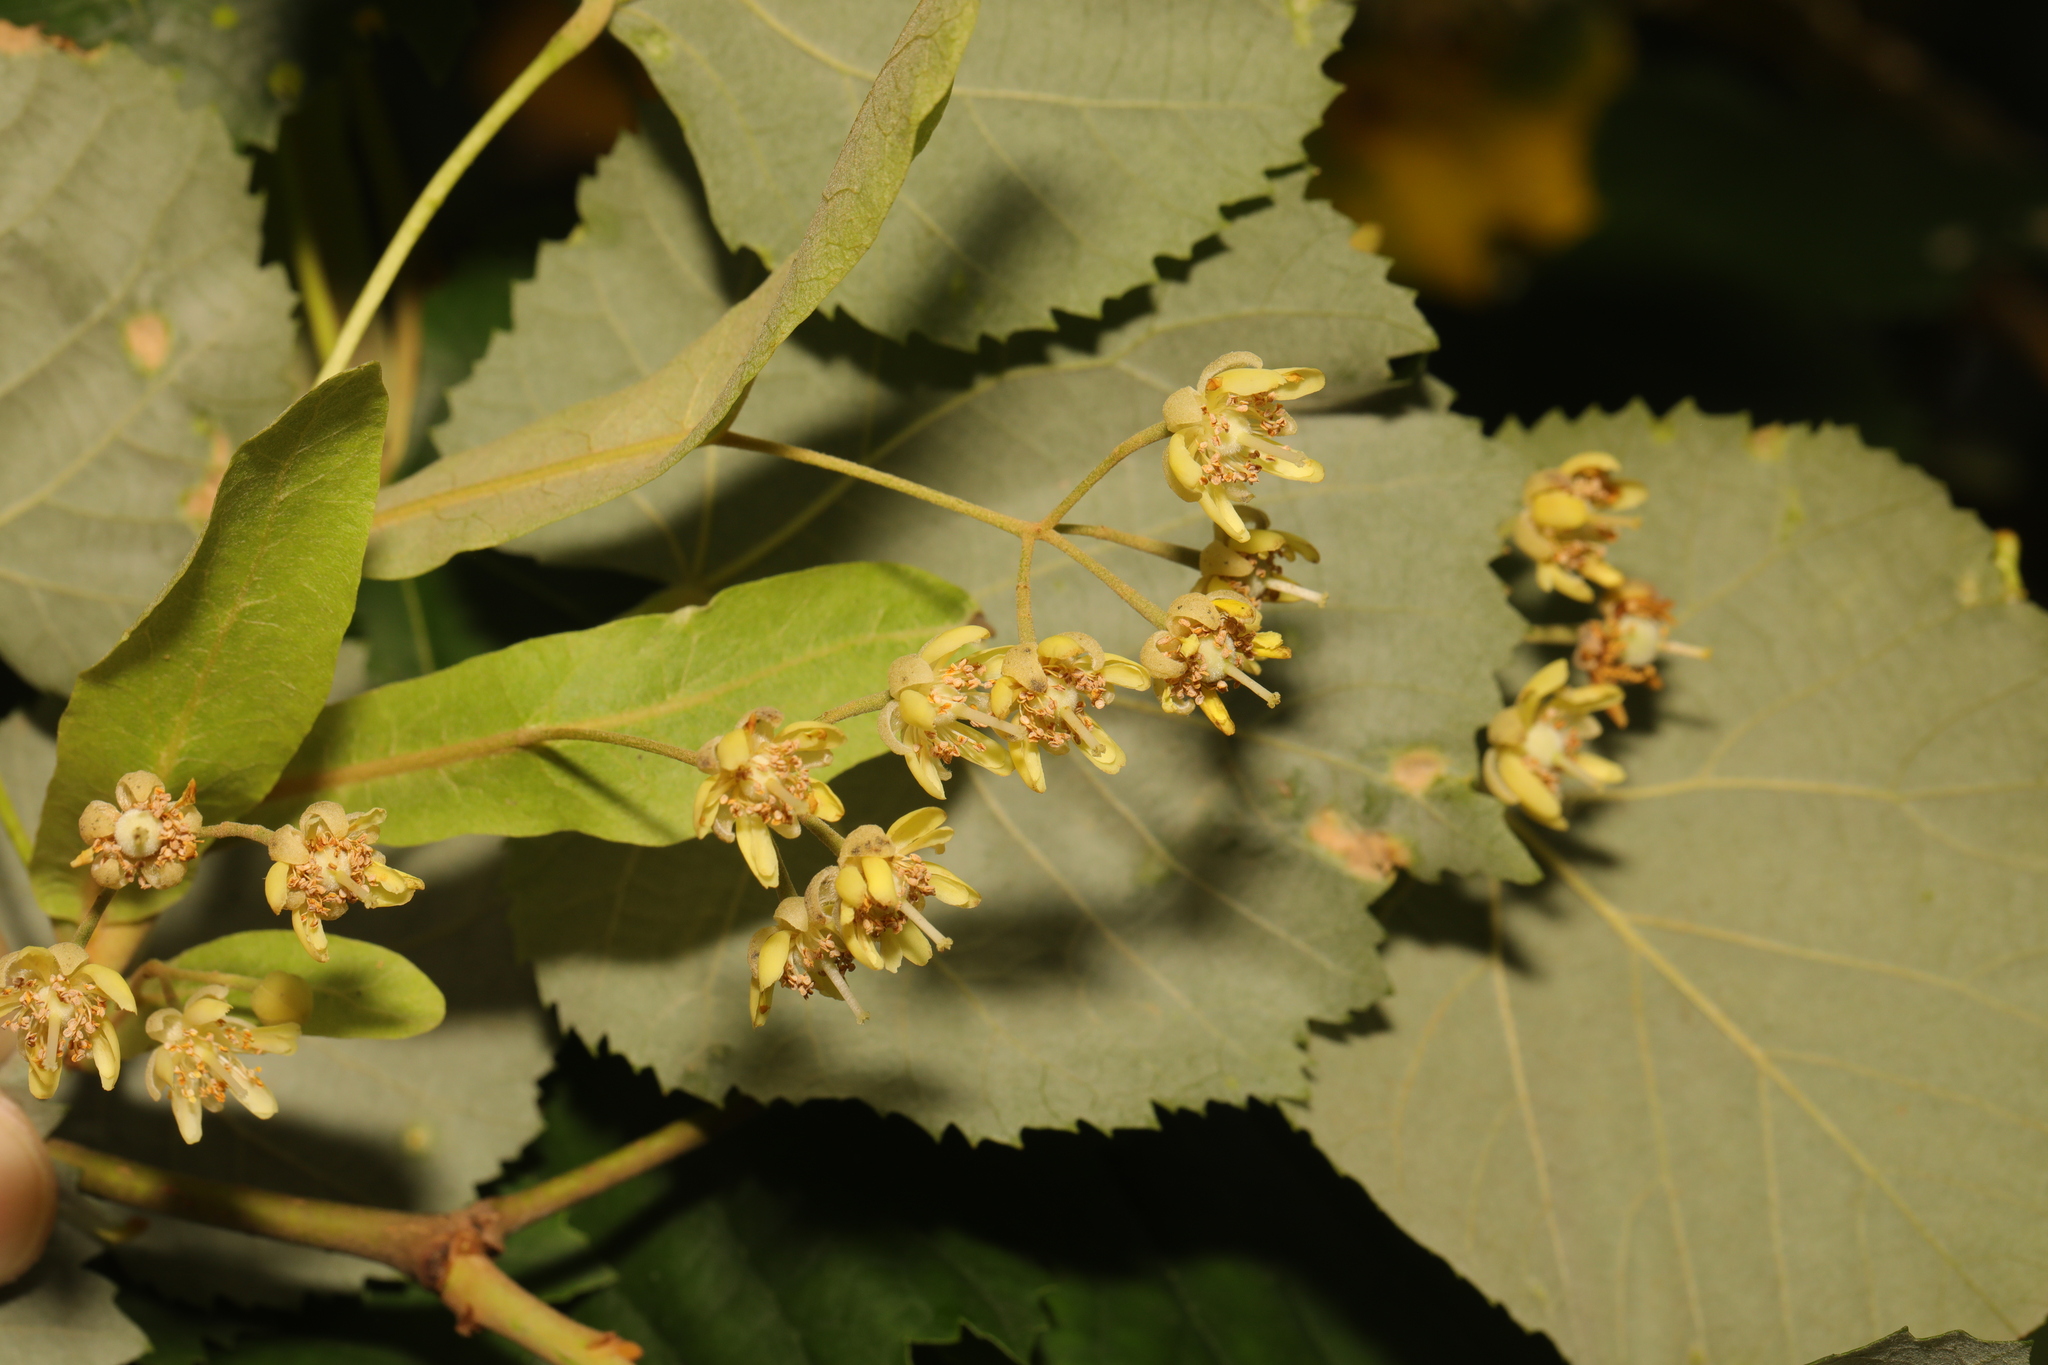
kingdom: Plantae
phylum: Tracheophyta
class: Magnoliopsida
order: Malvales
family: Malvaceae
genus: Tilia
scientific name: Tilia tomentosa
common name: Silver lime
